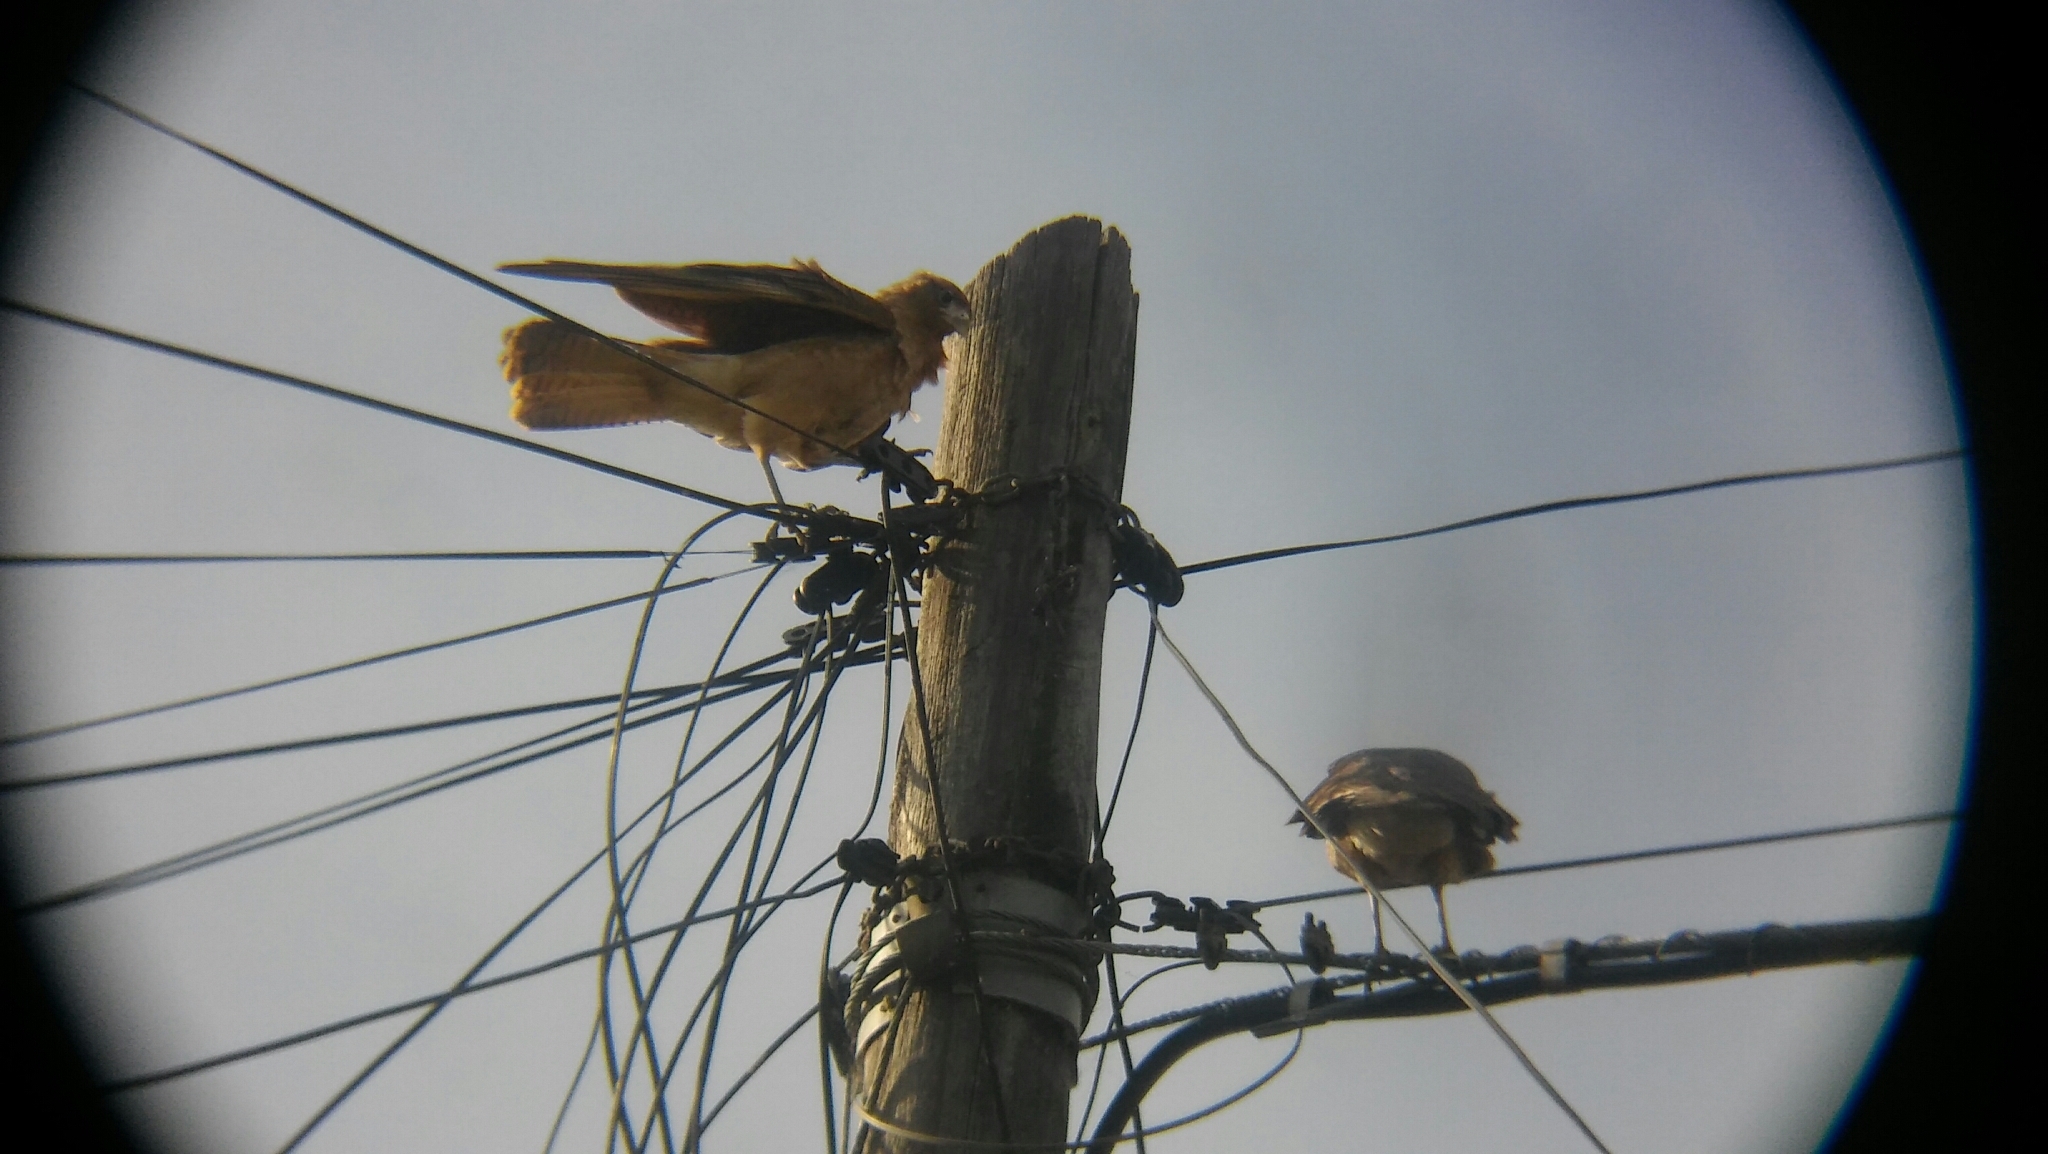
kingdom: Animalia
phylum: Chordata
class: Aves
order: Falconiformes
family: Falconidae
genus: Daptrius
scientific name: Daptrius
